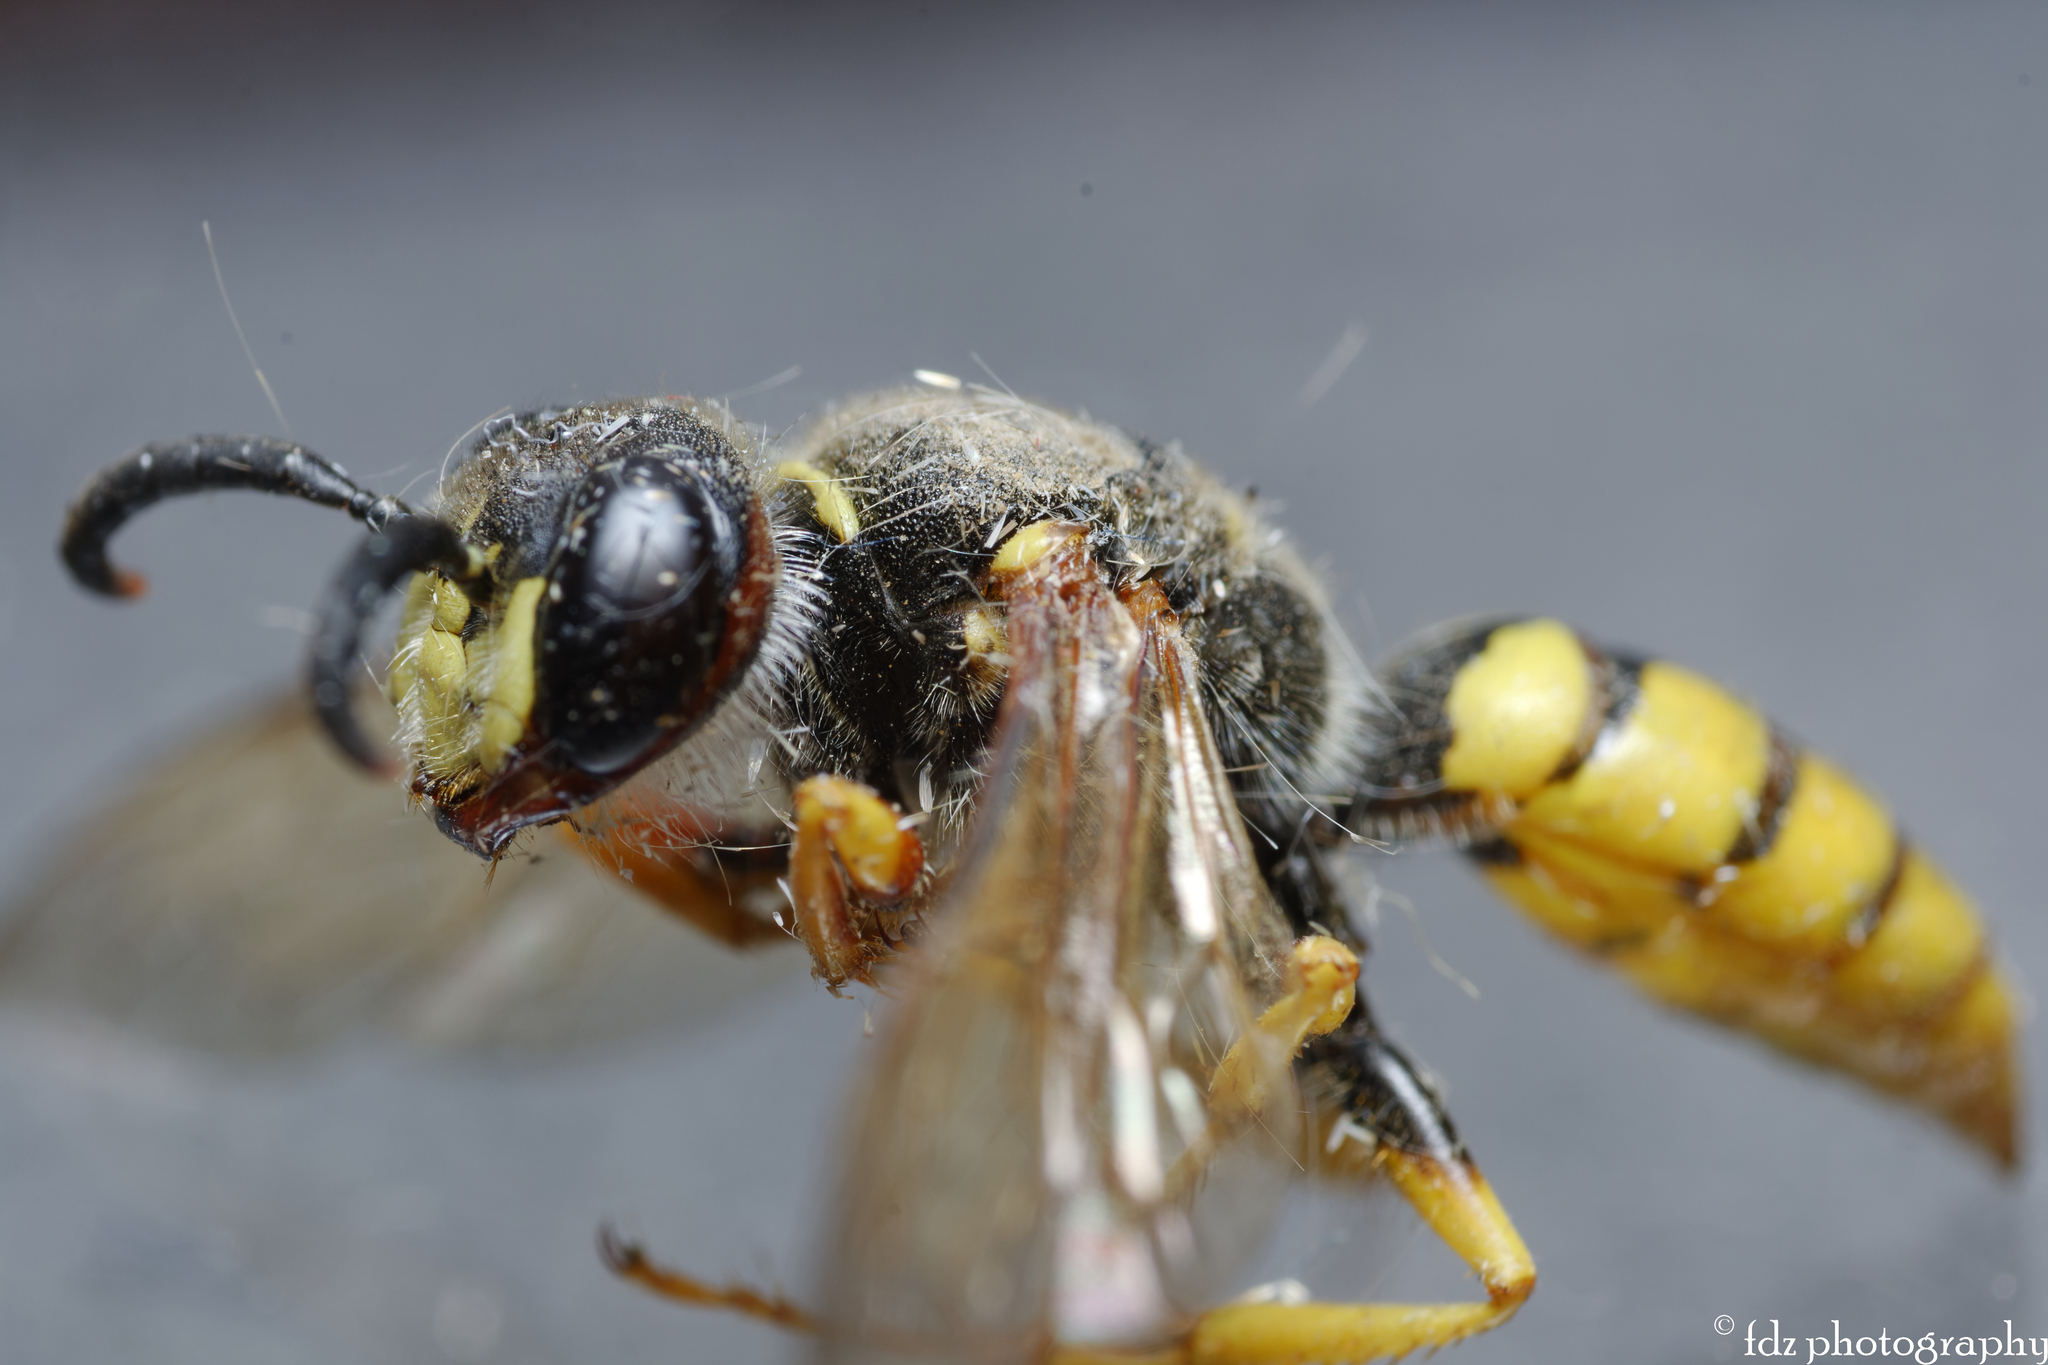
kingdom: Animalia
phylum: Arthropoda
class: Insecta
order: Hymenoptera
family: Crabronidae
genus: Philanthus
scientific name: Philanthus triangulum
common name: Bee wolf
